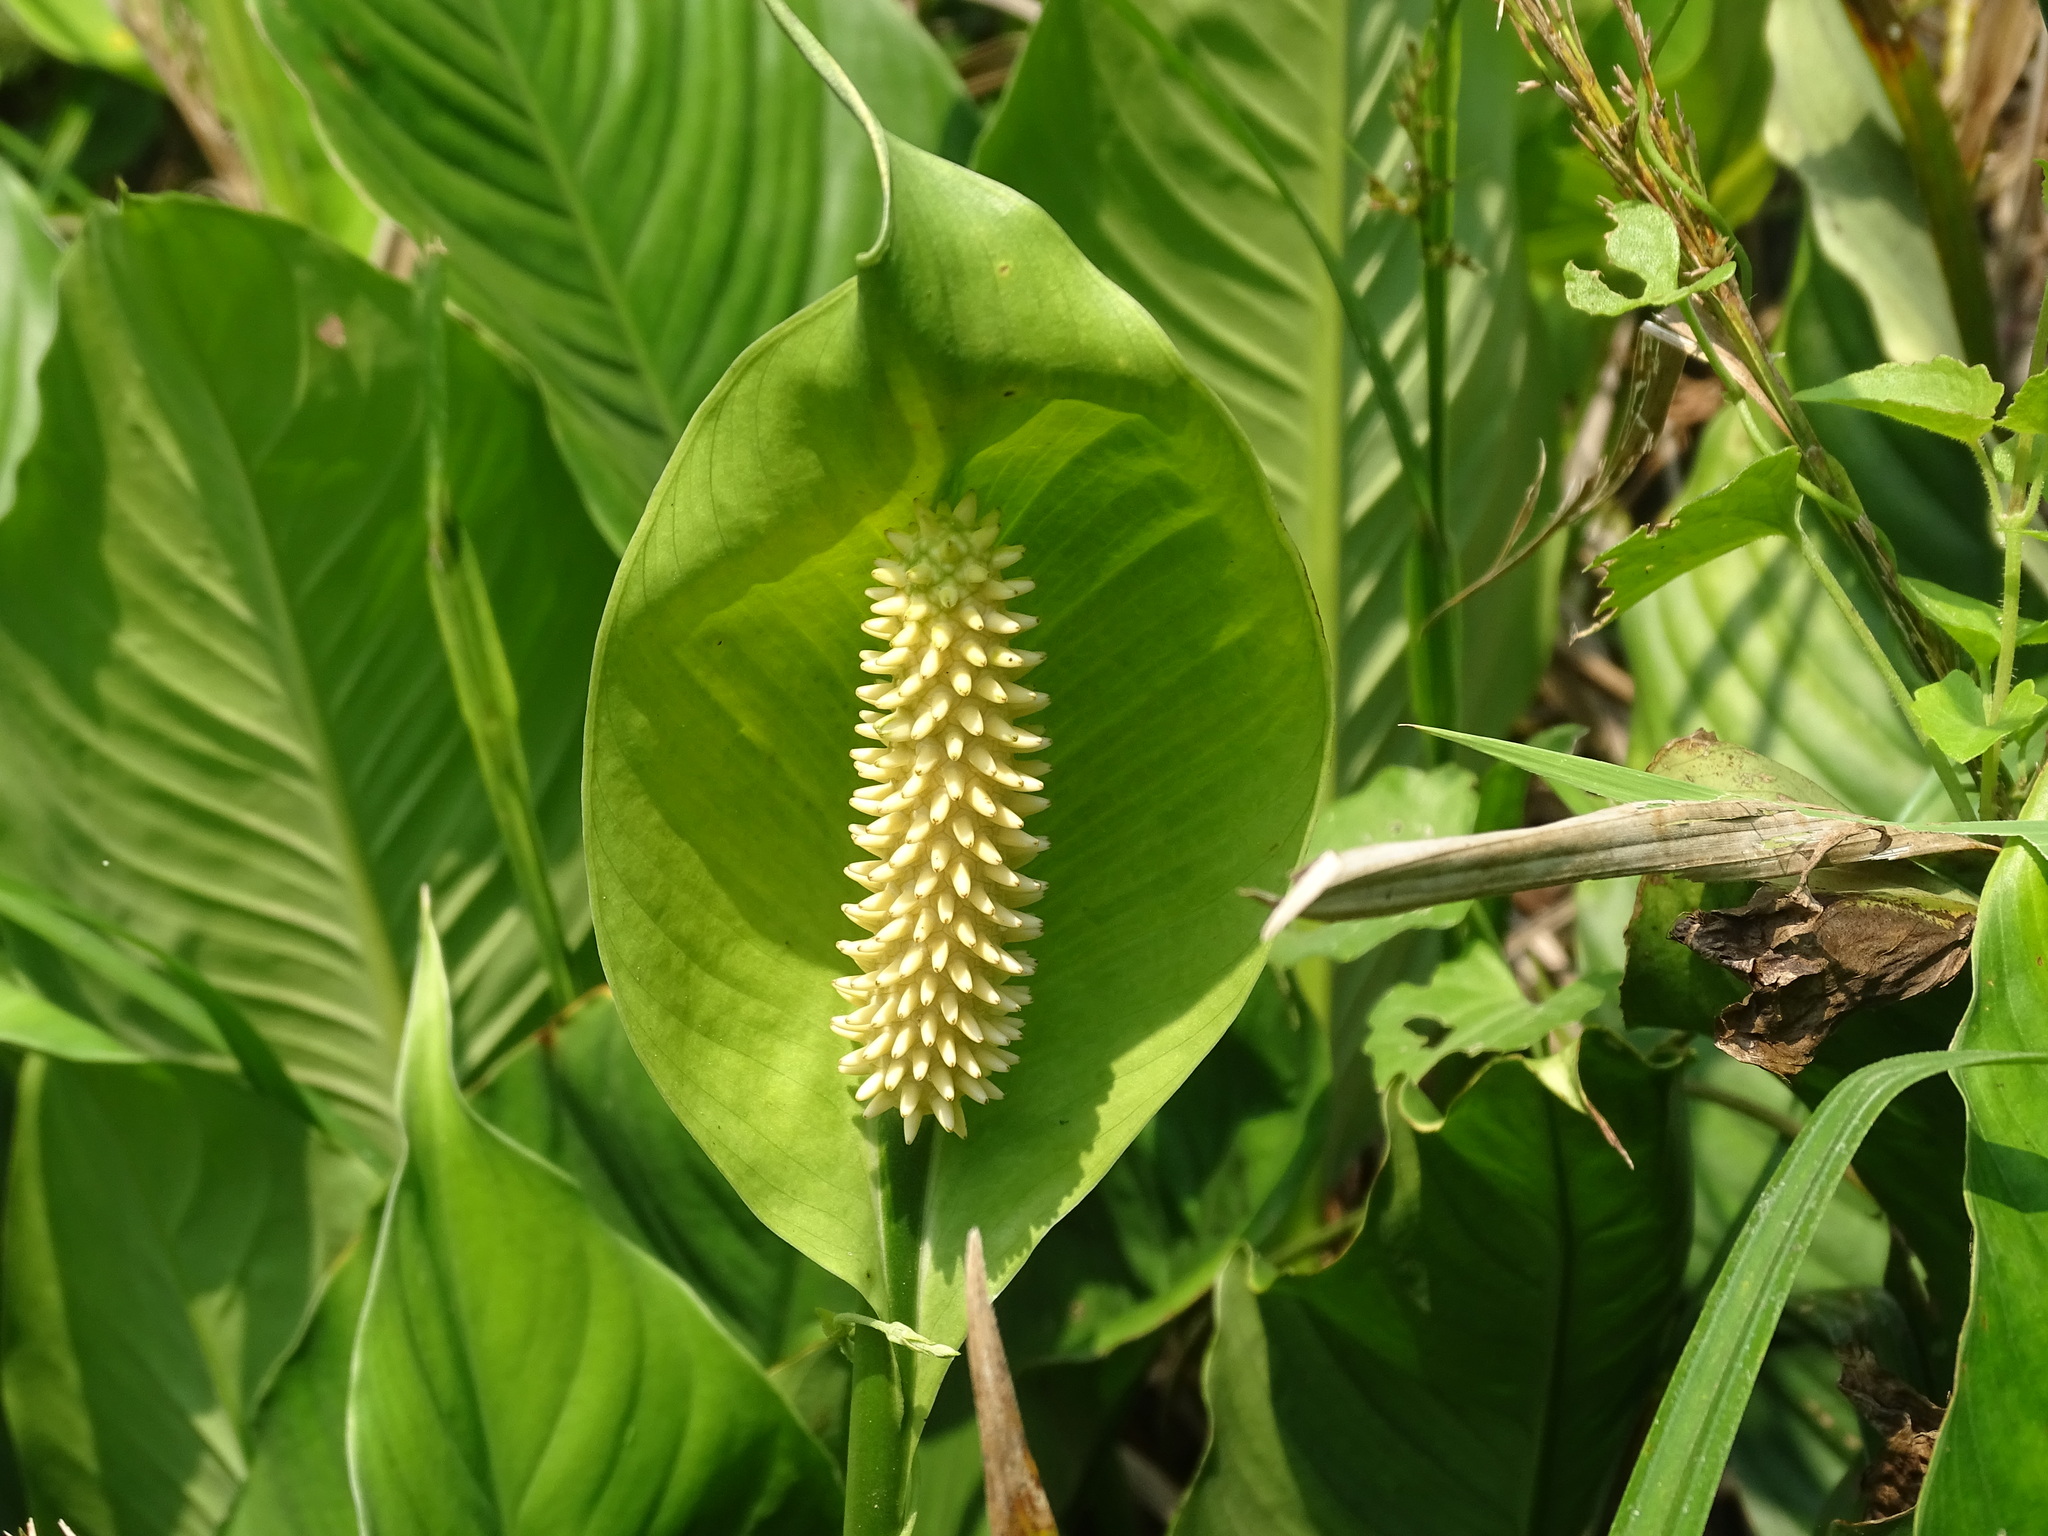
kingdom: Plantae
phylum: Tracheophyta
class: Liliopsida
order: Alismatales
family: Araceae
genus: Spathiphyllum
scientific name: Spathiphyllum friedrichsthalii
